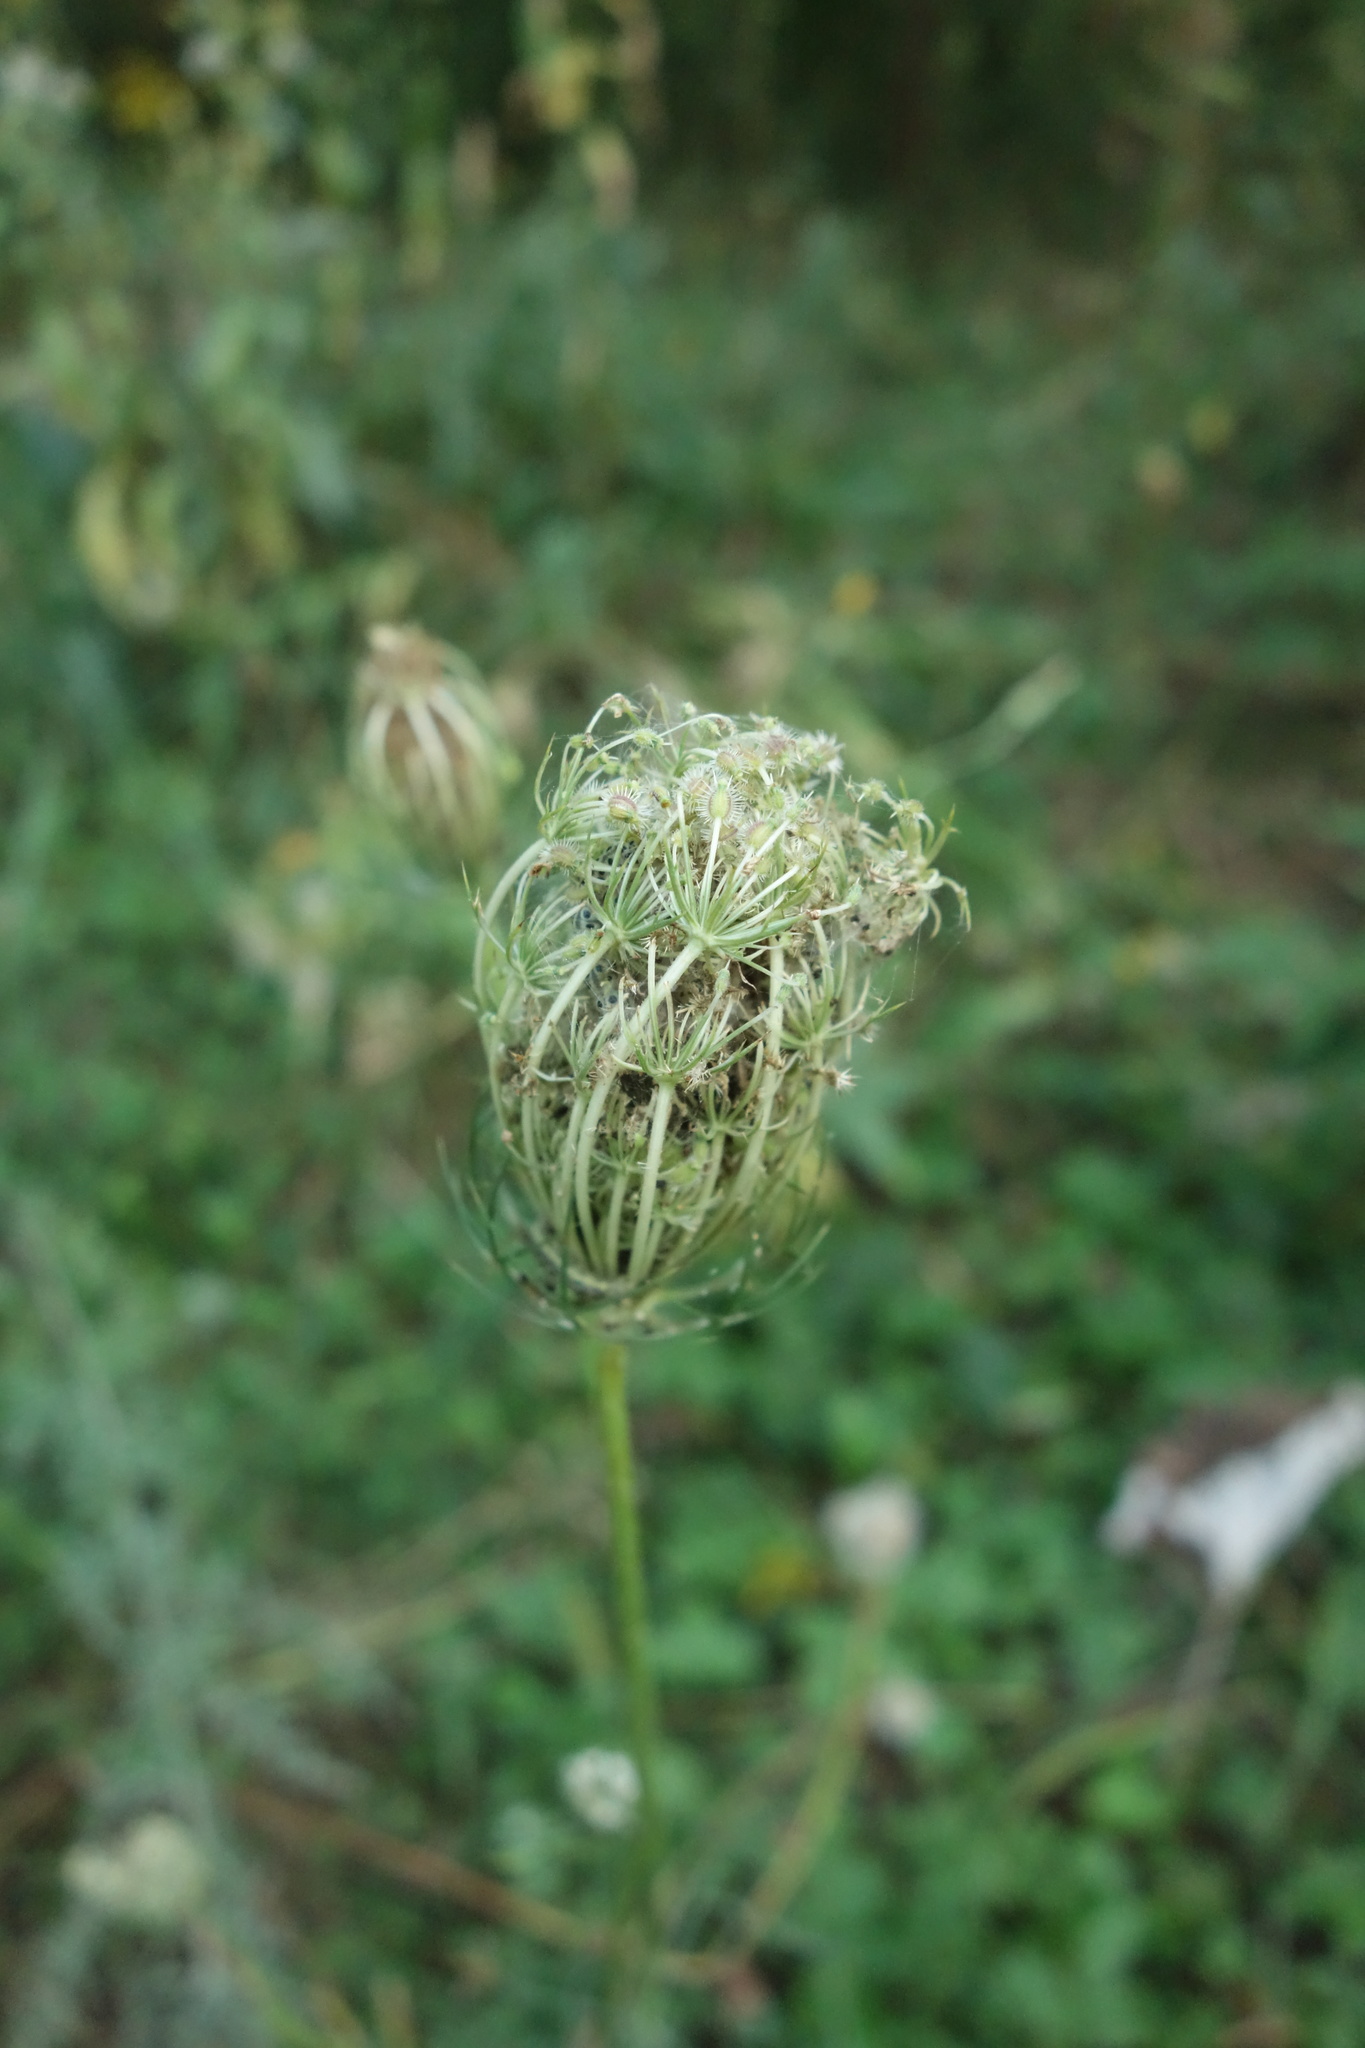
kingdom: Plantae
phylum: Tracheophyta
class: Magnoliopsida
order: Apiales
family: Apiaceae
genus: Daucus
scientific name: Daucus carota
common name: Wild carrot
